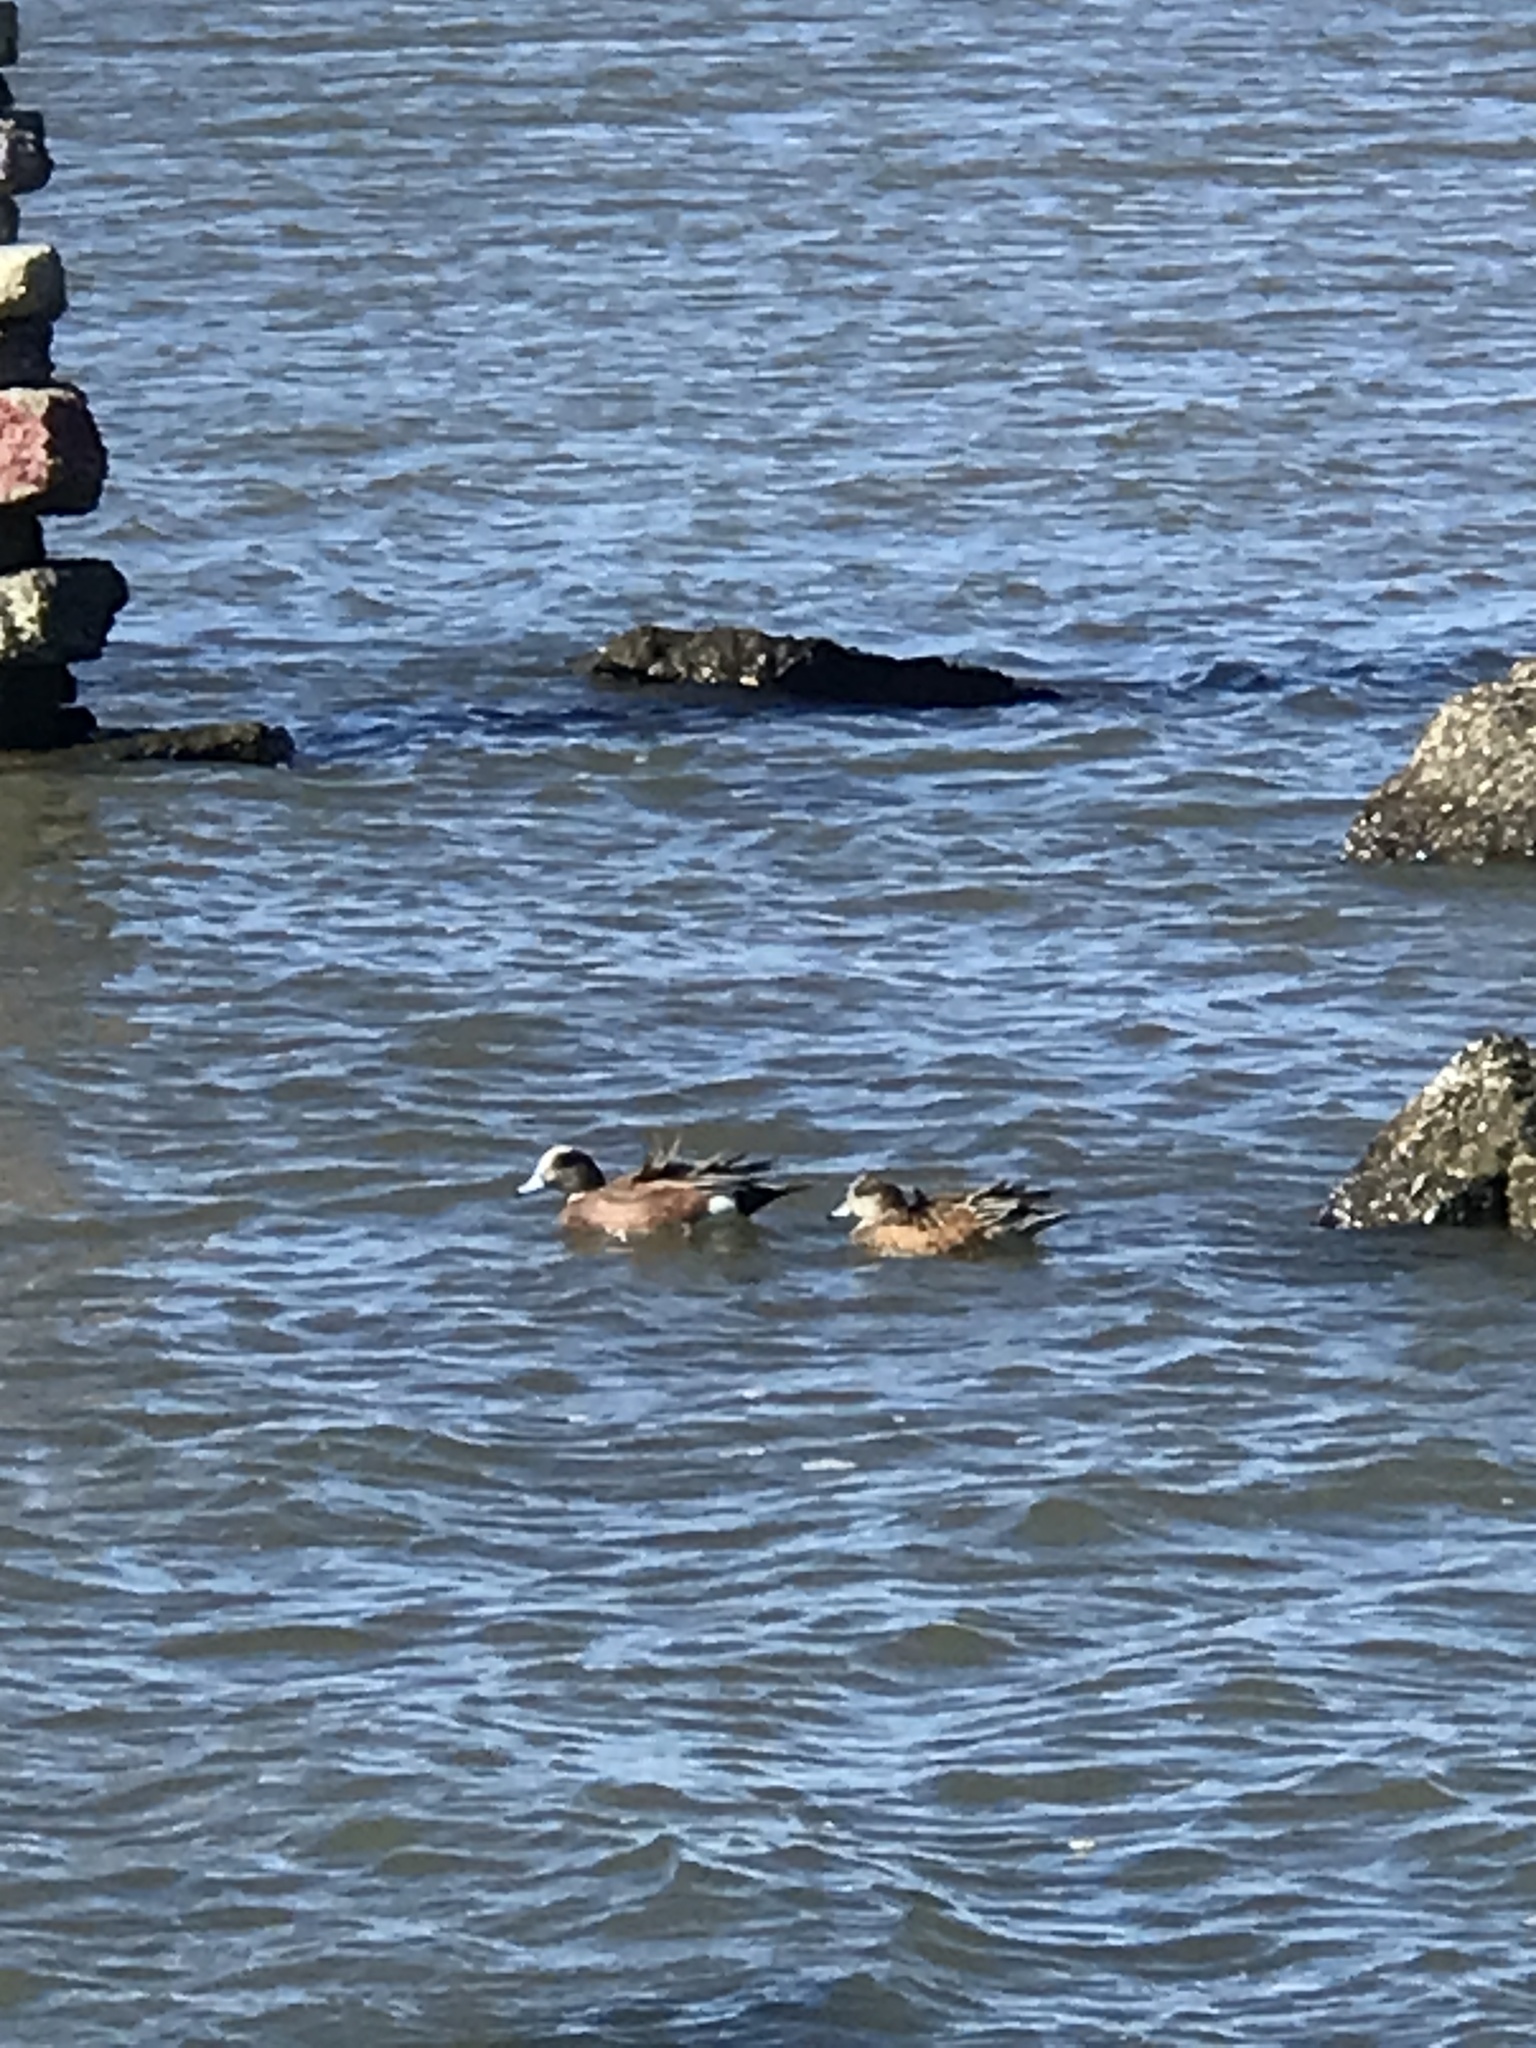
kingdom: Animalia
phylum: Chordata
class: Aves
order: Anseriformes
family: Anatidae
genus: Mareca
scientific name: Mareca americana
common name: American wigeon
